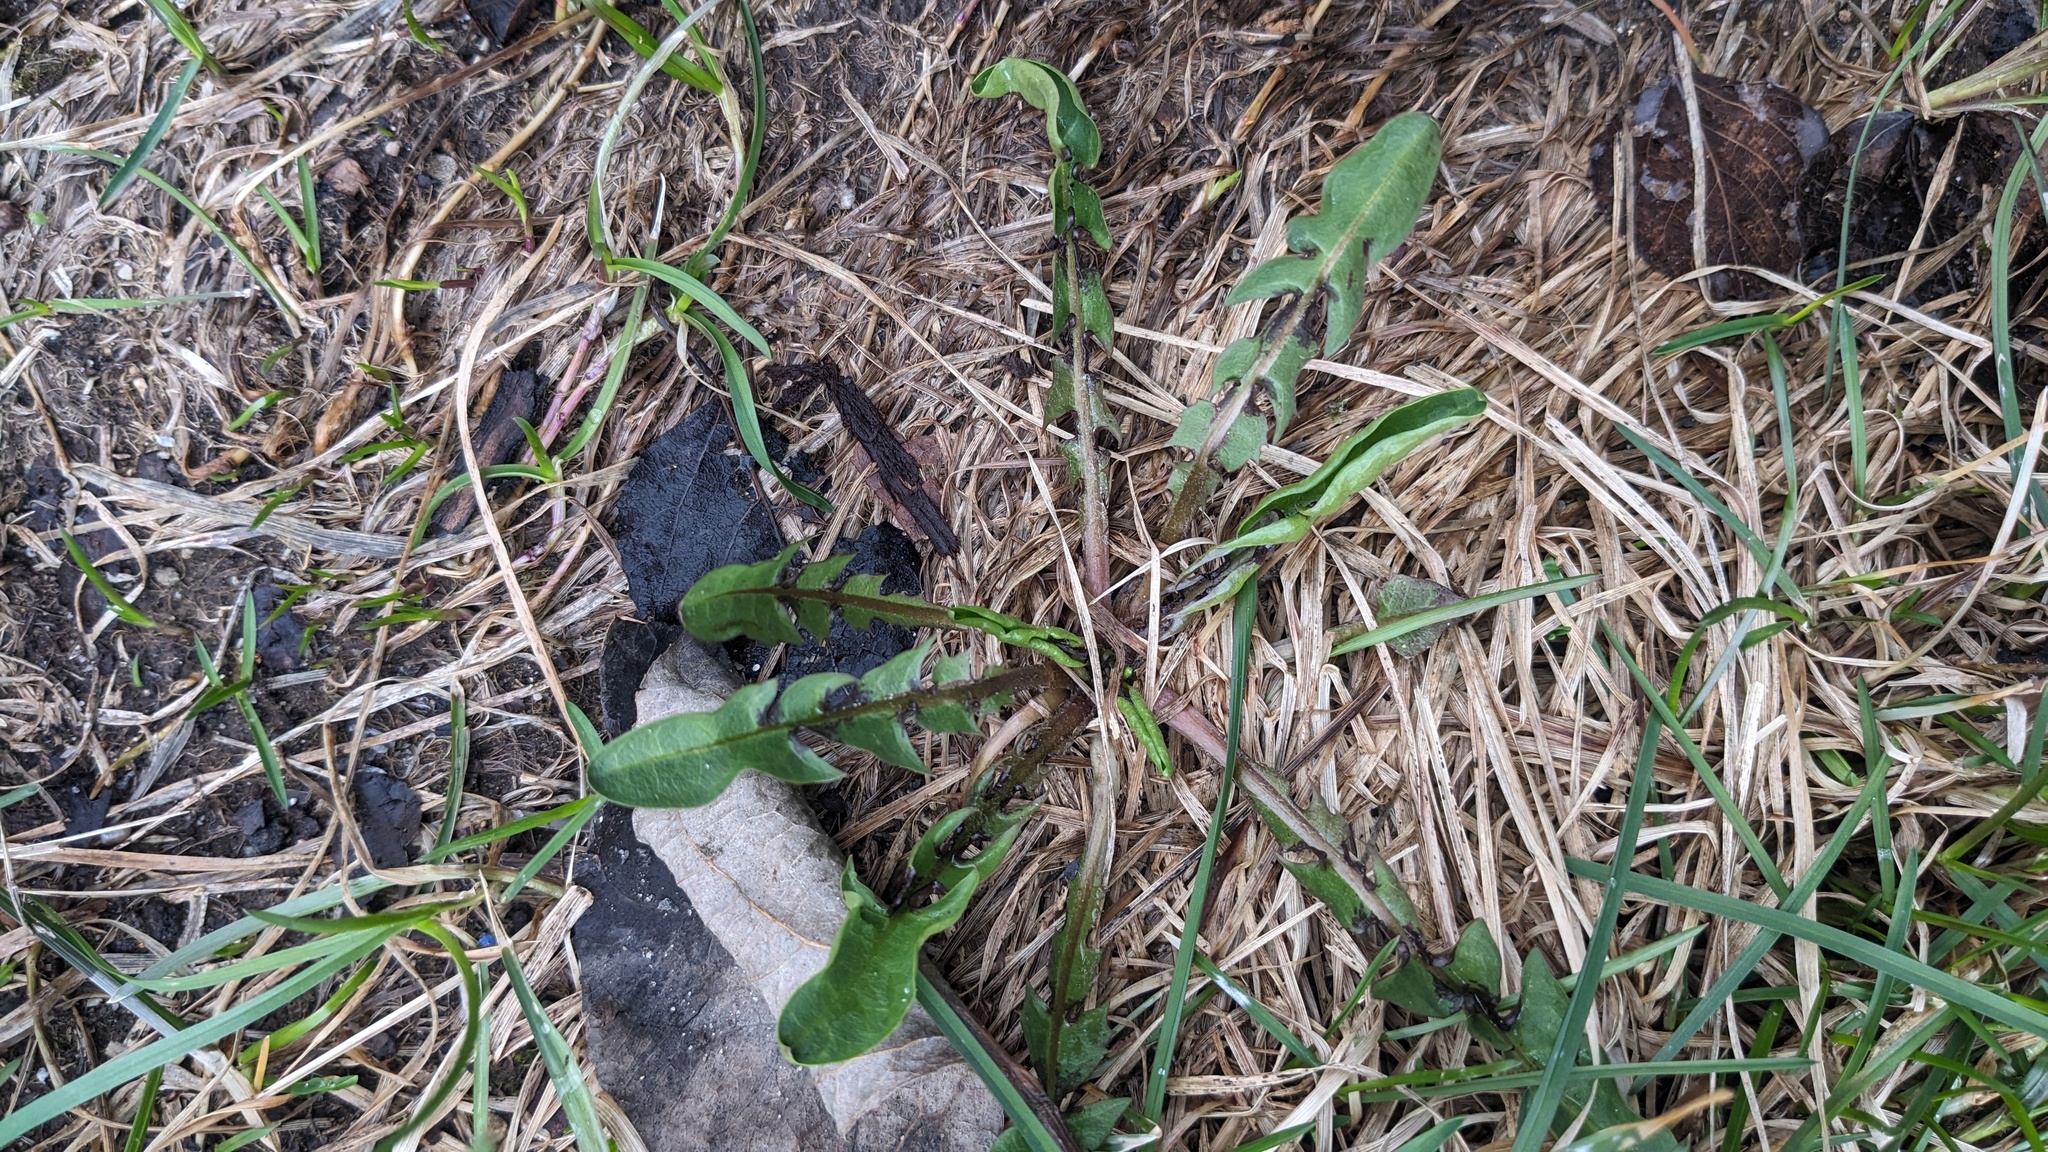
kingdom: Plantae
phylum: Tracheophyta
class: Magnoliopsida
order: Asterales
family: Asteraceae
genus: Taraxacum
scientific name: Taraxacum
